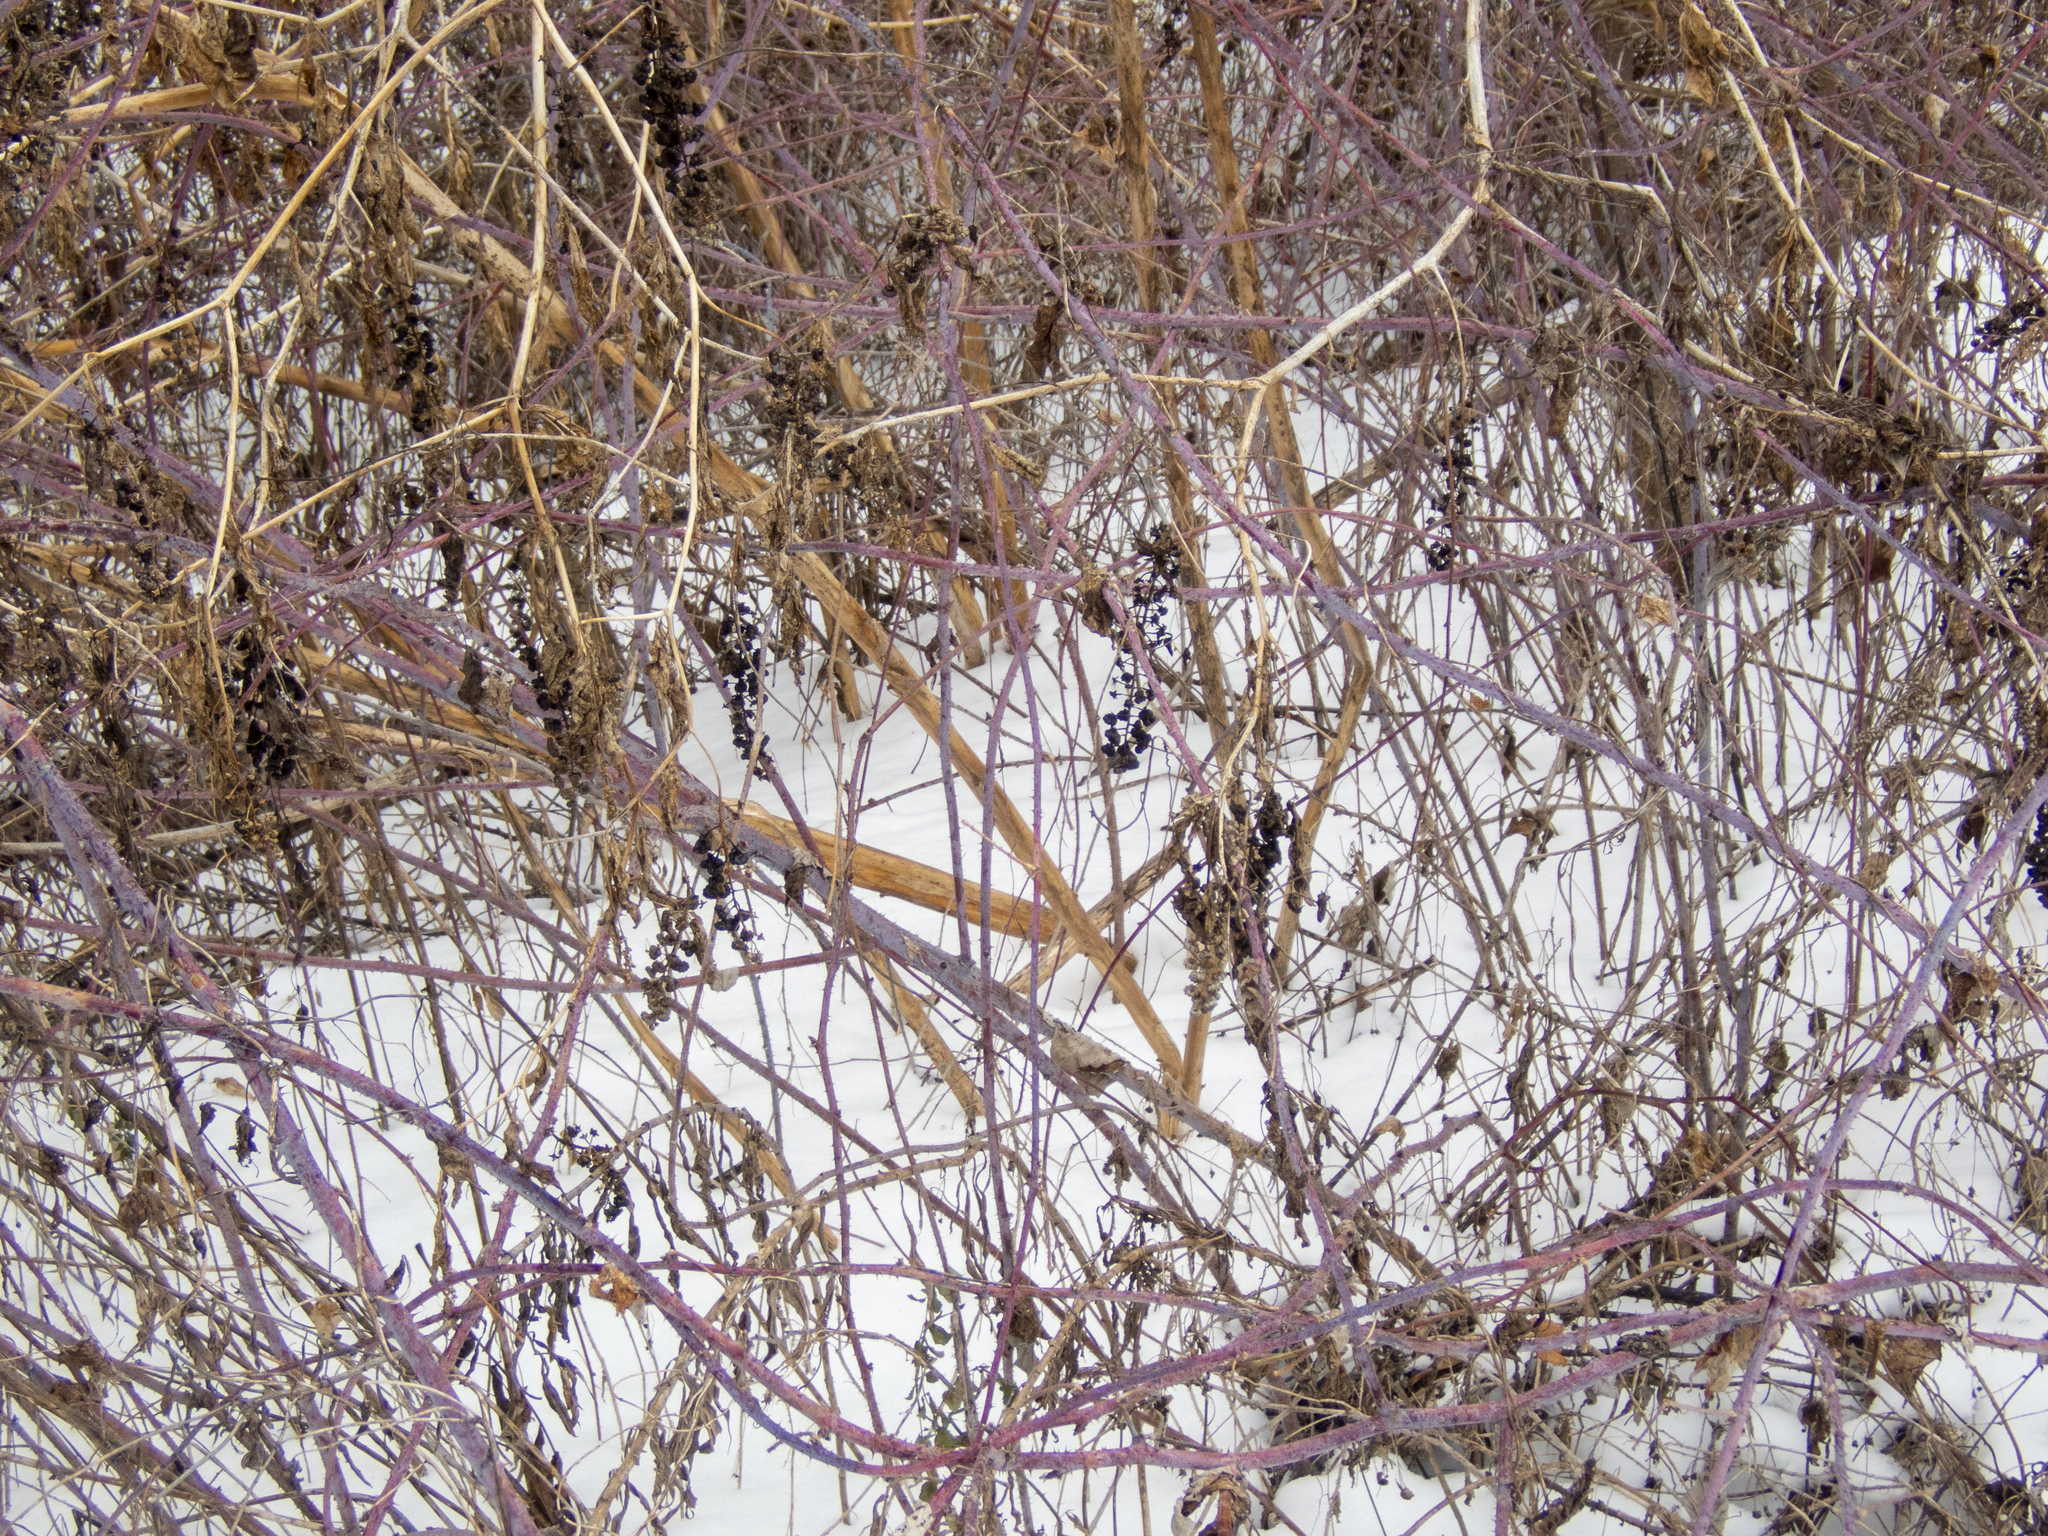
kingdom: Plantae
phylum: Tracheophyta
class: Magnoliopsida
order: Caryophyllales
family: Phytolaccaceae
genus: Phytolacca
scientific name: Phytolacca americana
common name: American pokeweed
